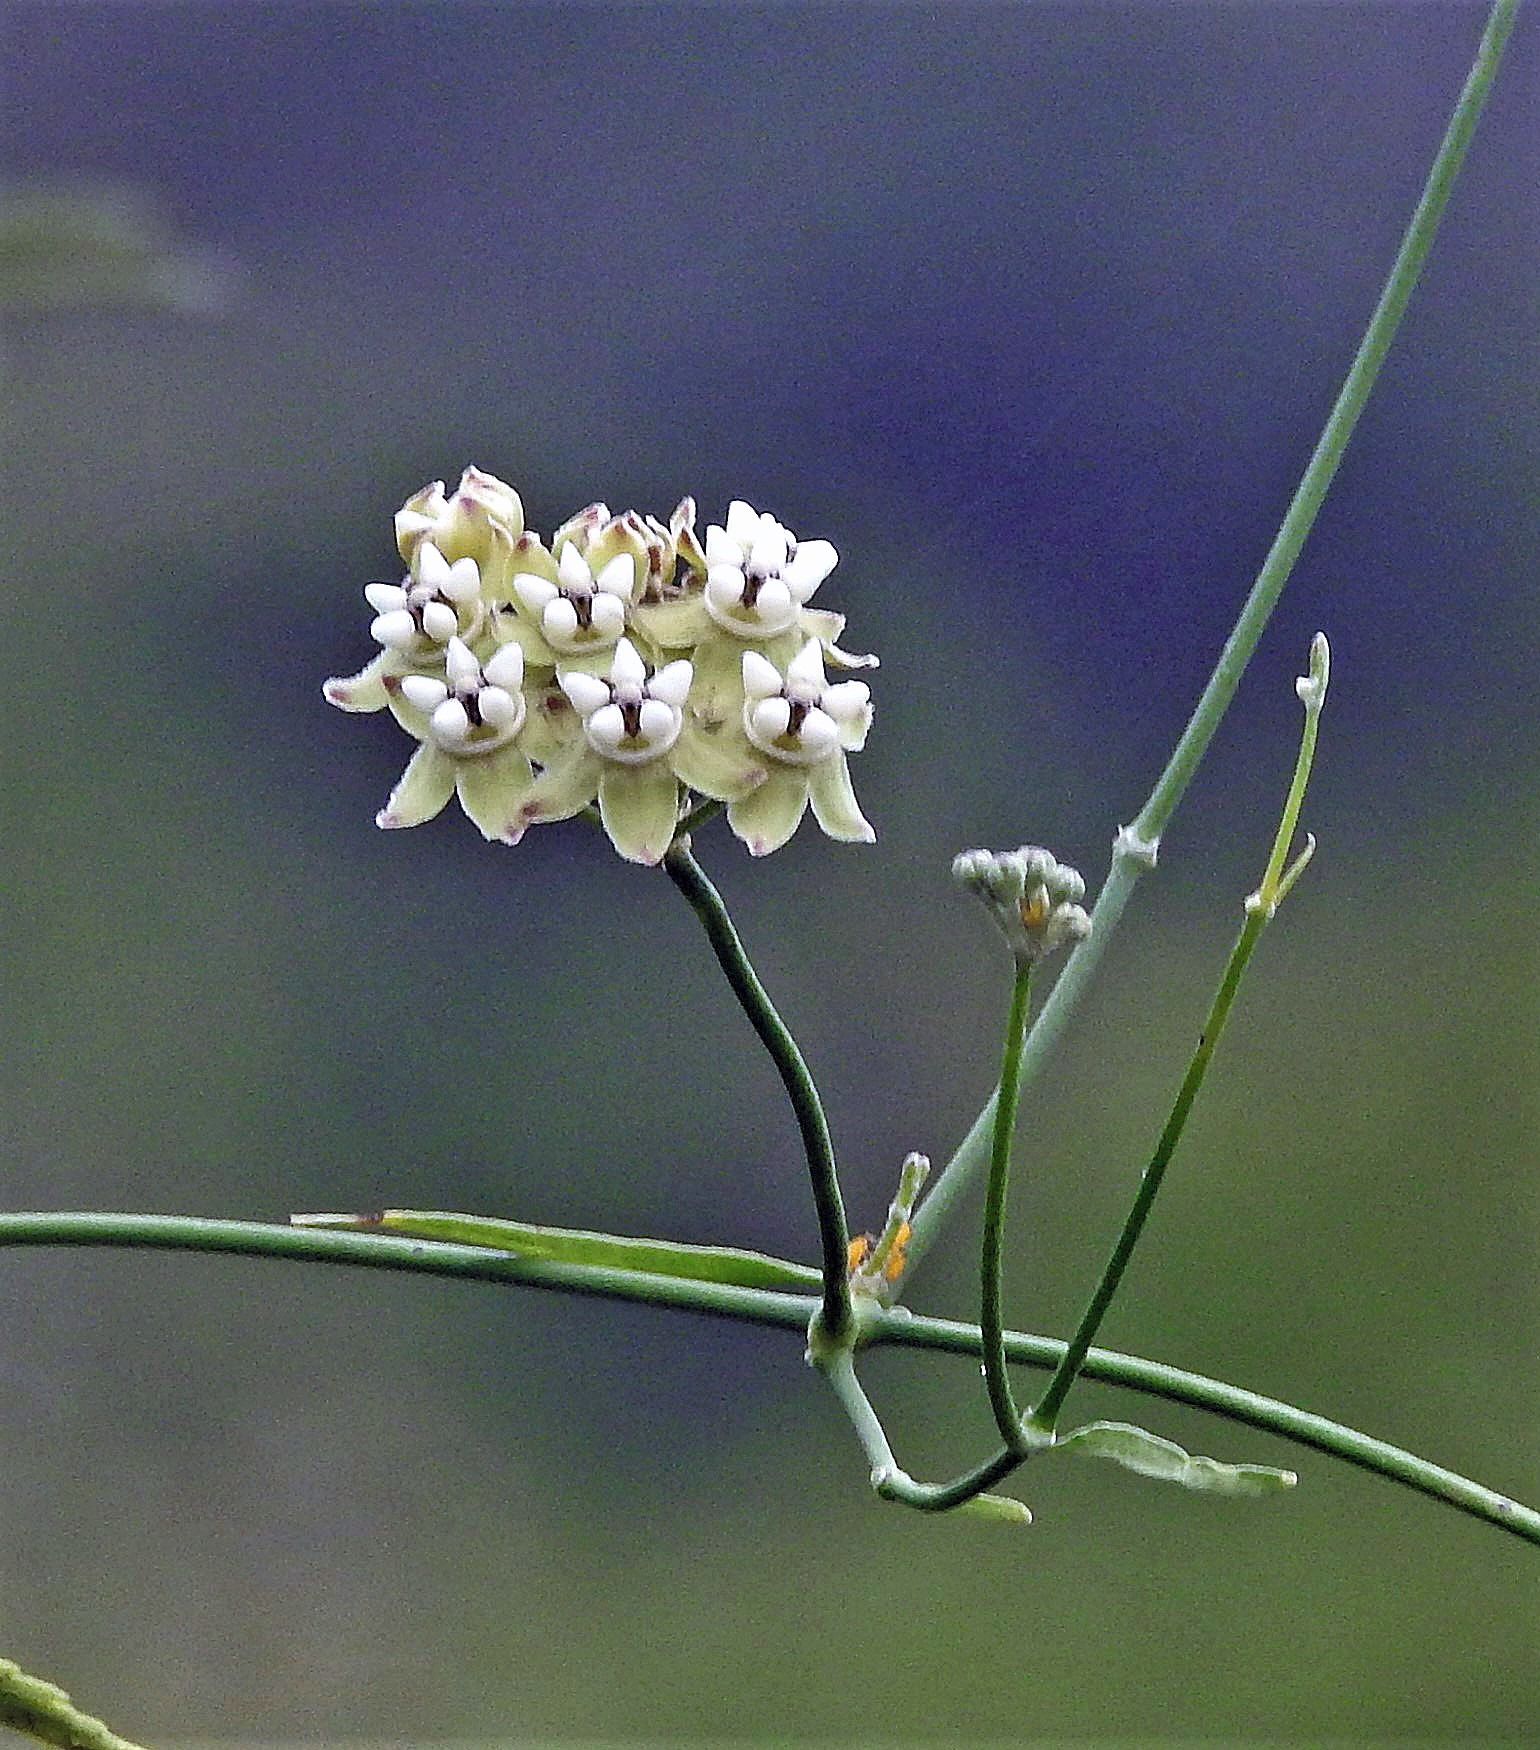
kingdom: Plantae
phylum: Tracheophyta
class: Magnoliopsida
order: Gentianales
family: Apocynaceae
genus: Funastrum
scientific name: Funastrum gracile
